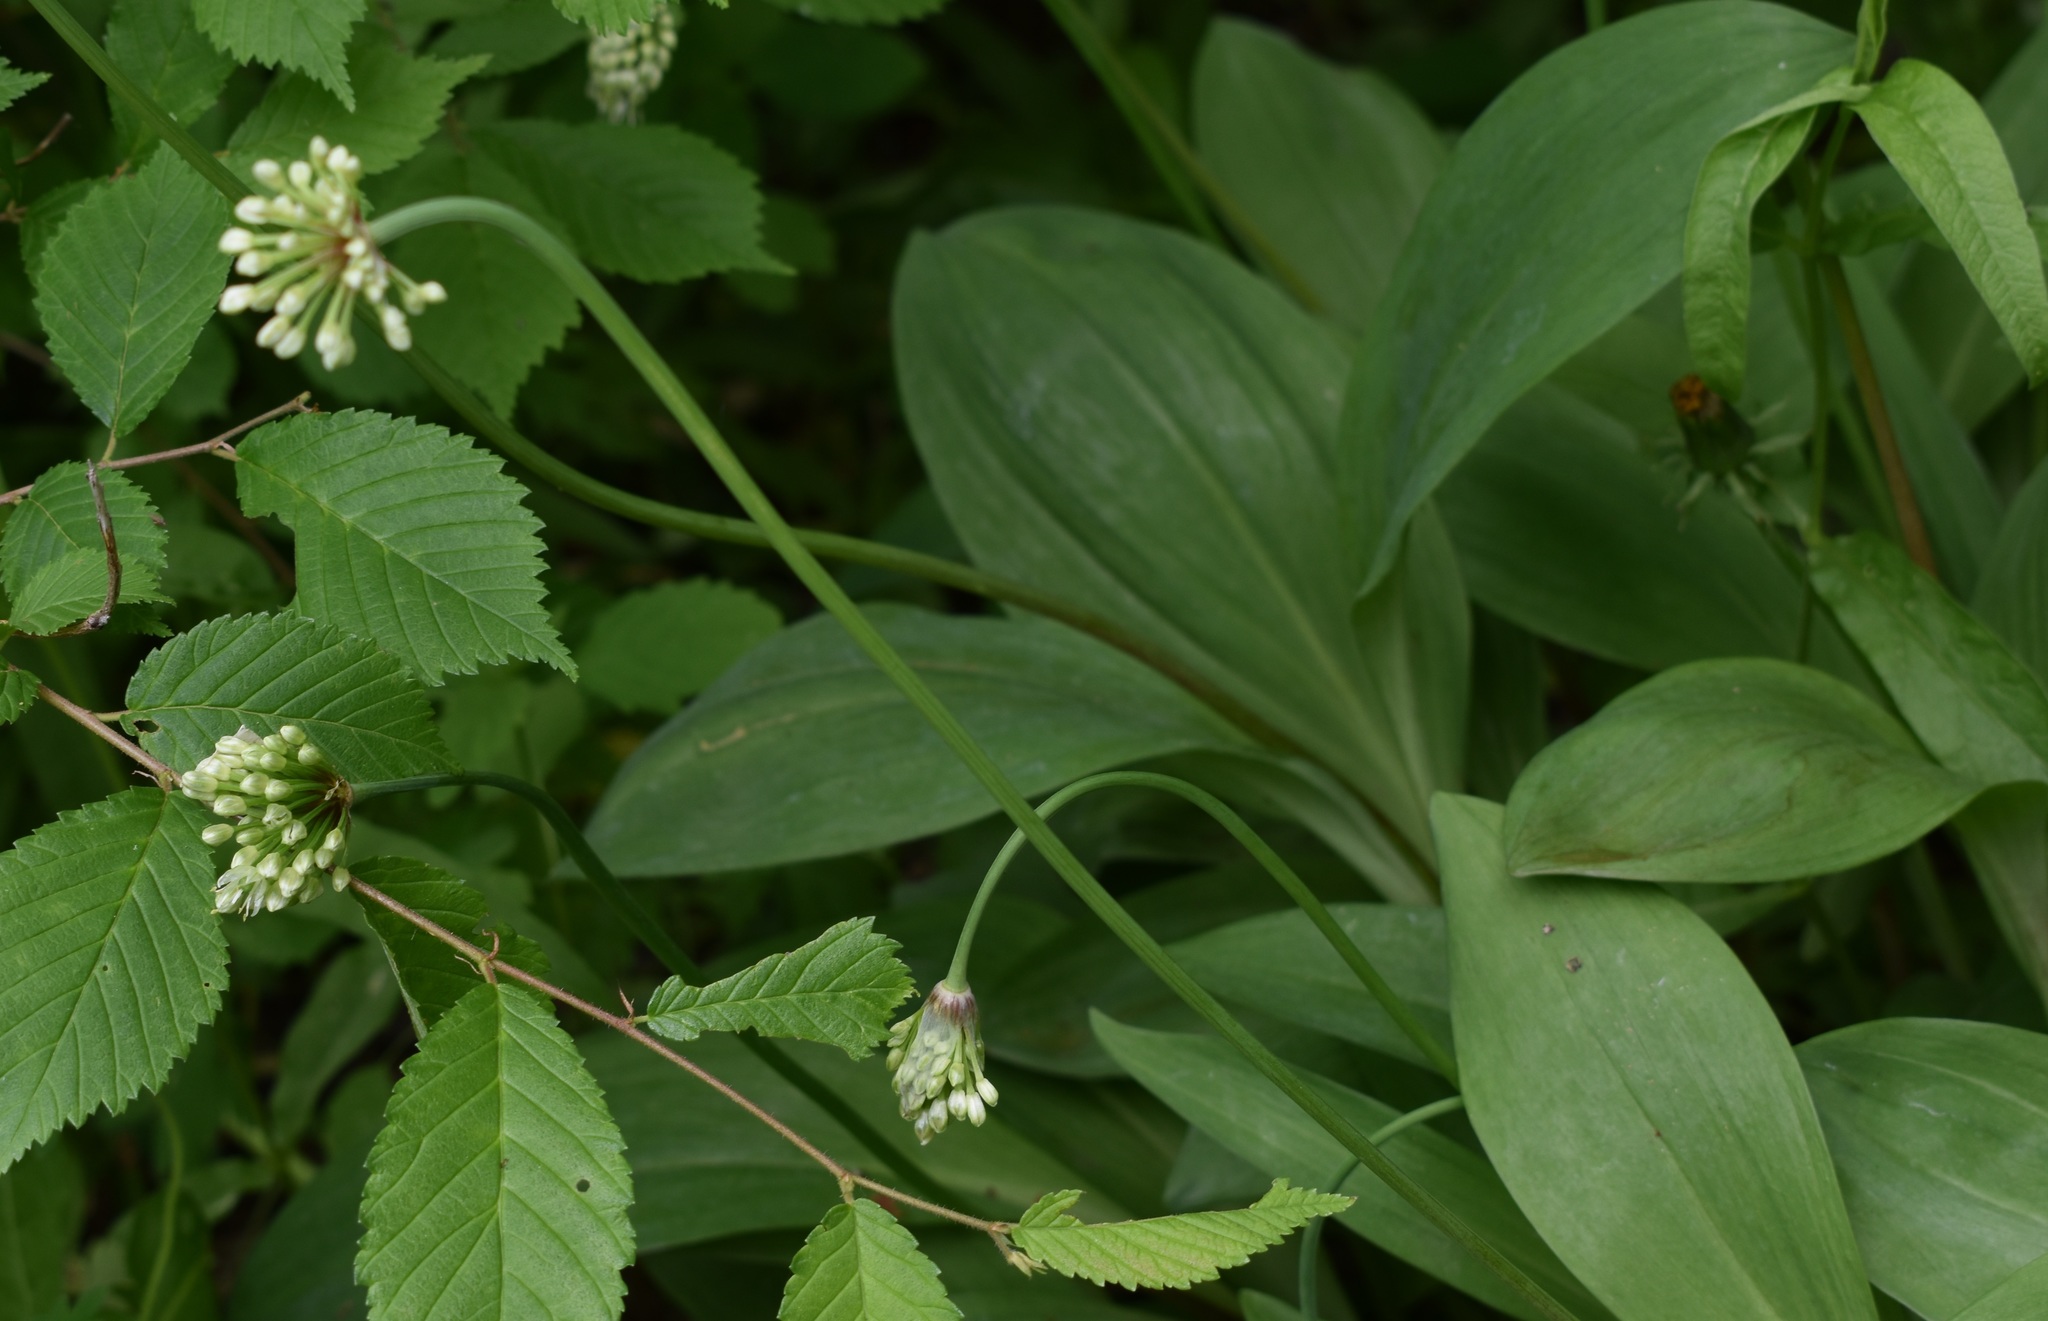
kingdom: Plantae
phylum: Tracheophyta
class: Liliopsida
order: Asparagales
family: Amaryllidaceae
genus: Allium
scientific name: Allium ochotense
